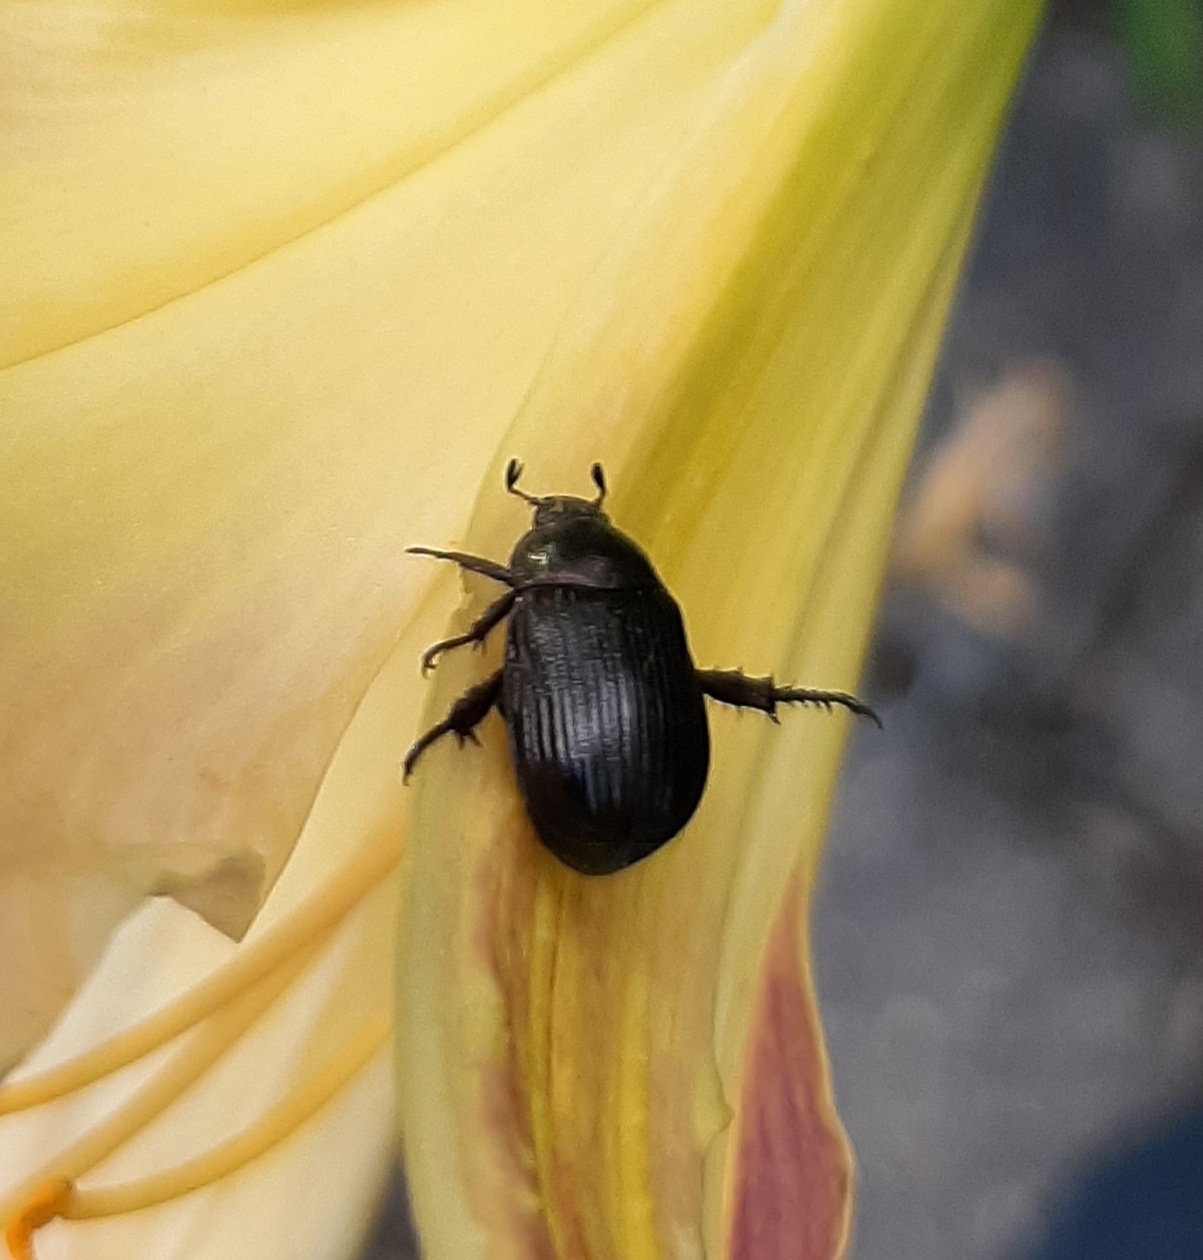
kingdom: Animalia
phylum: Arthropoda
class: Insecta
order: Coleoptera
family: Scarabaeidae
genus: Exomala
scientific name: Exomala orientalis
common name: Oriental beetle
